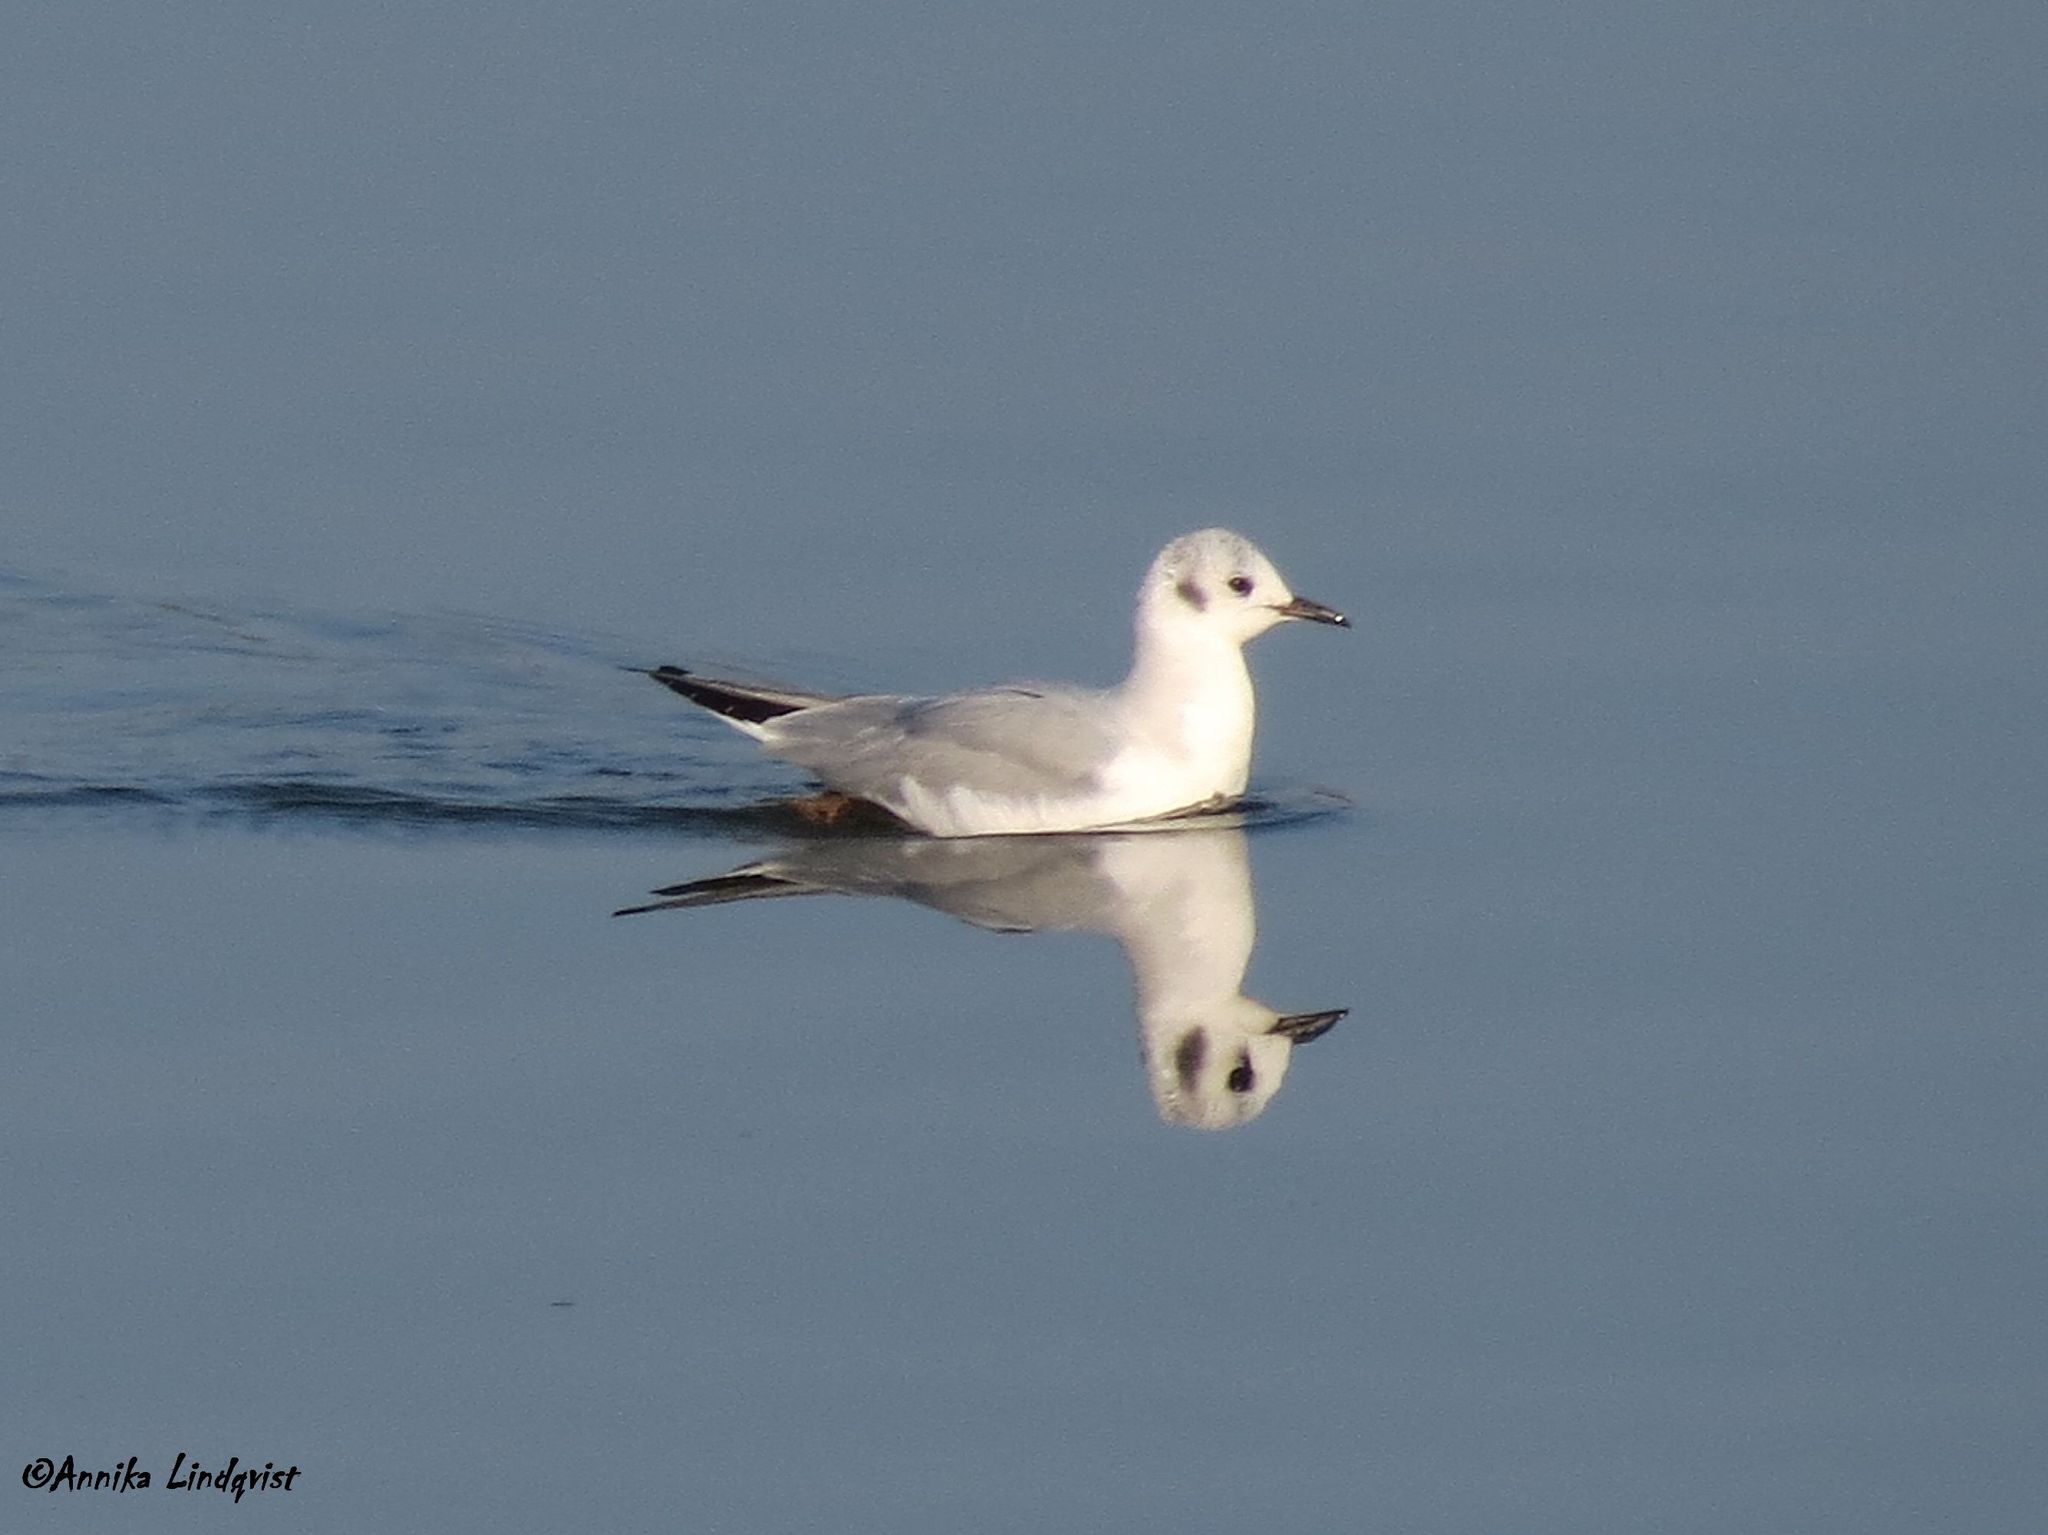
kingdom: Animalia
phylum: Chordata
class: Aves
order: Charadriiformes
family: Laridae
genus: Chroicocephalus
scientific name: Chroicocephalus philadelphia
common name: Bonaparte's gull
